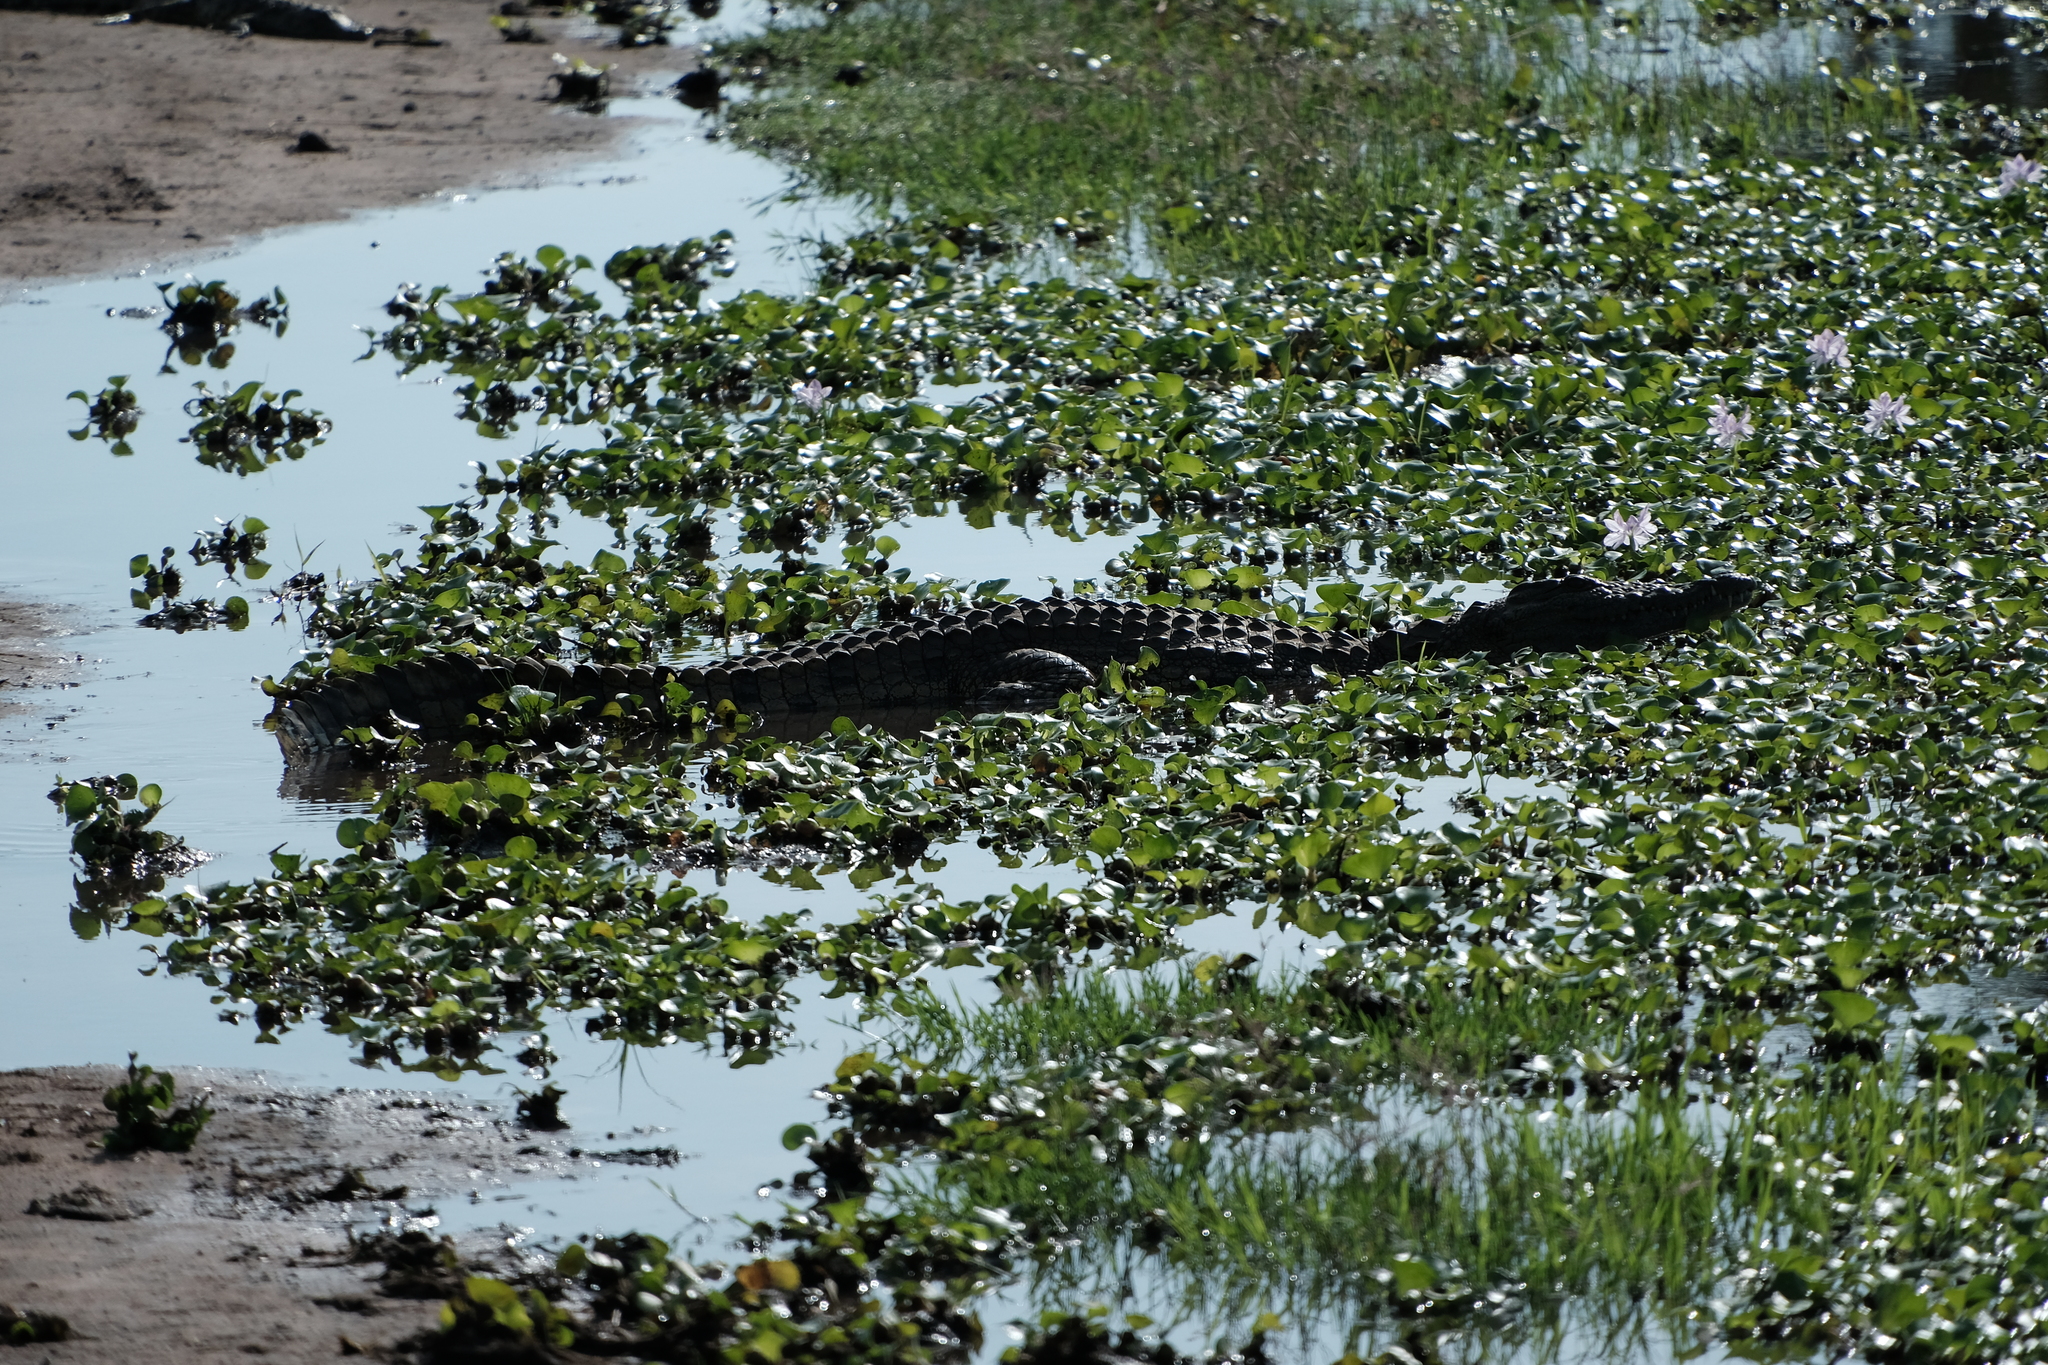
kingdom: Animalia
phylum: Chordata
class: Crocodylia
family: Crocodylidae
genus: Crocodylus
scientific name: Crocodylus niloticus
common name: Nile crocodile
